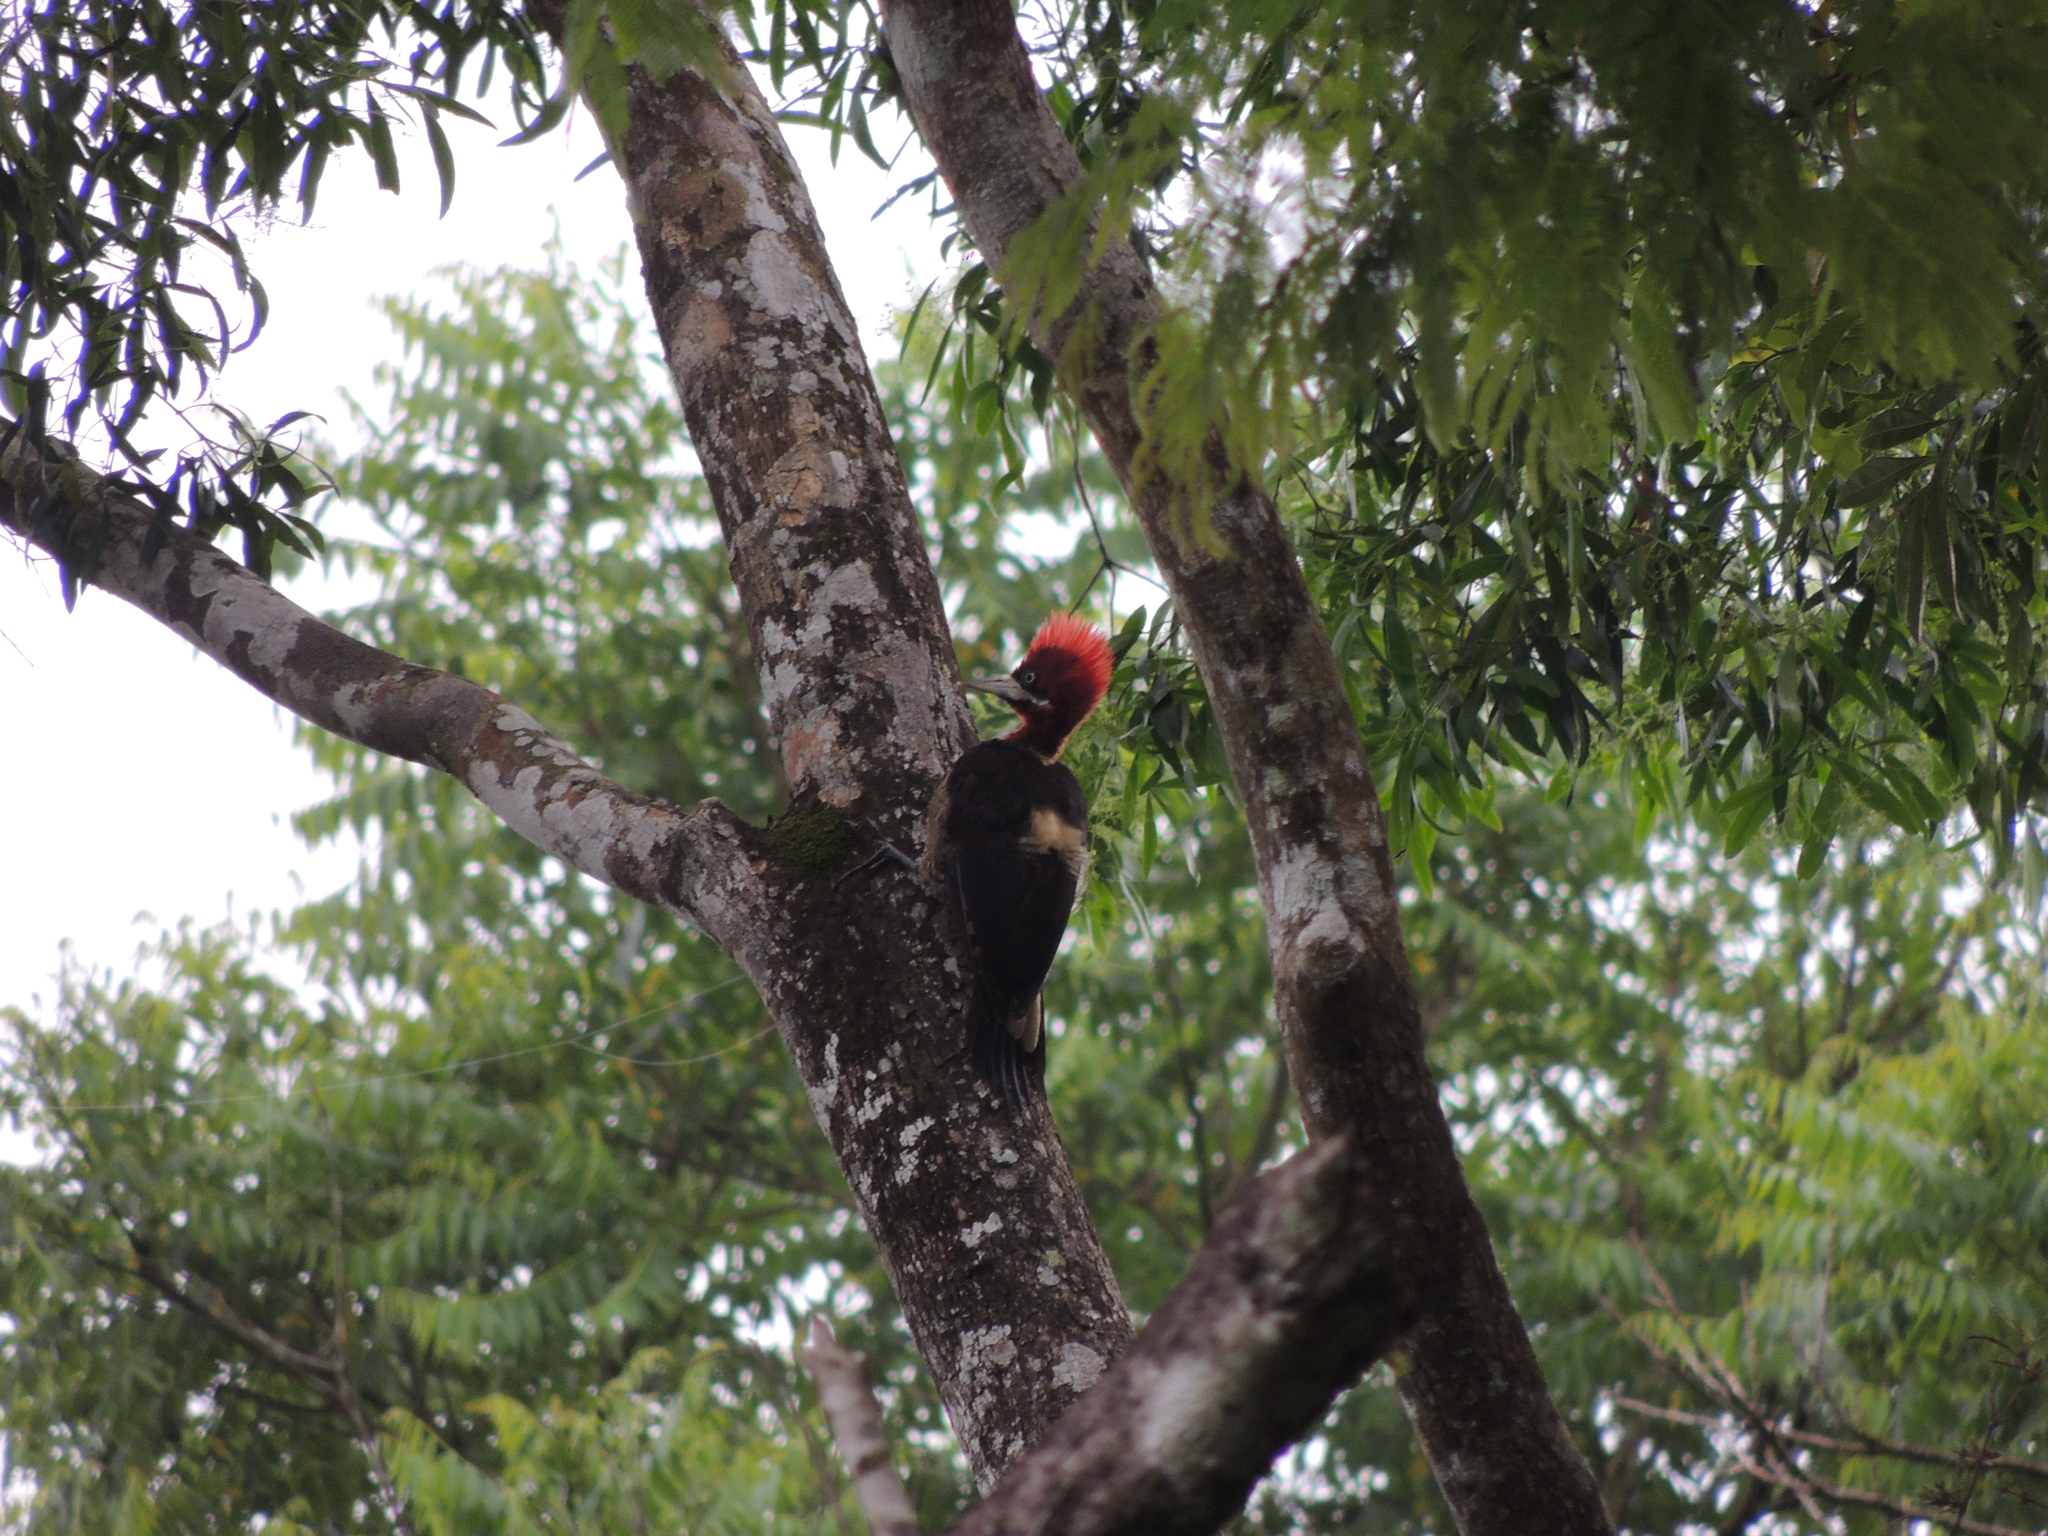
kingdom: Animalia
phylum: Chordata
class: Aves
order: Piciformes
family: Picidae
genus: Campephilus
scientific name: Campephilus robustus
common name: Robust woodpecker
